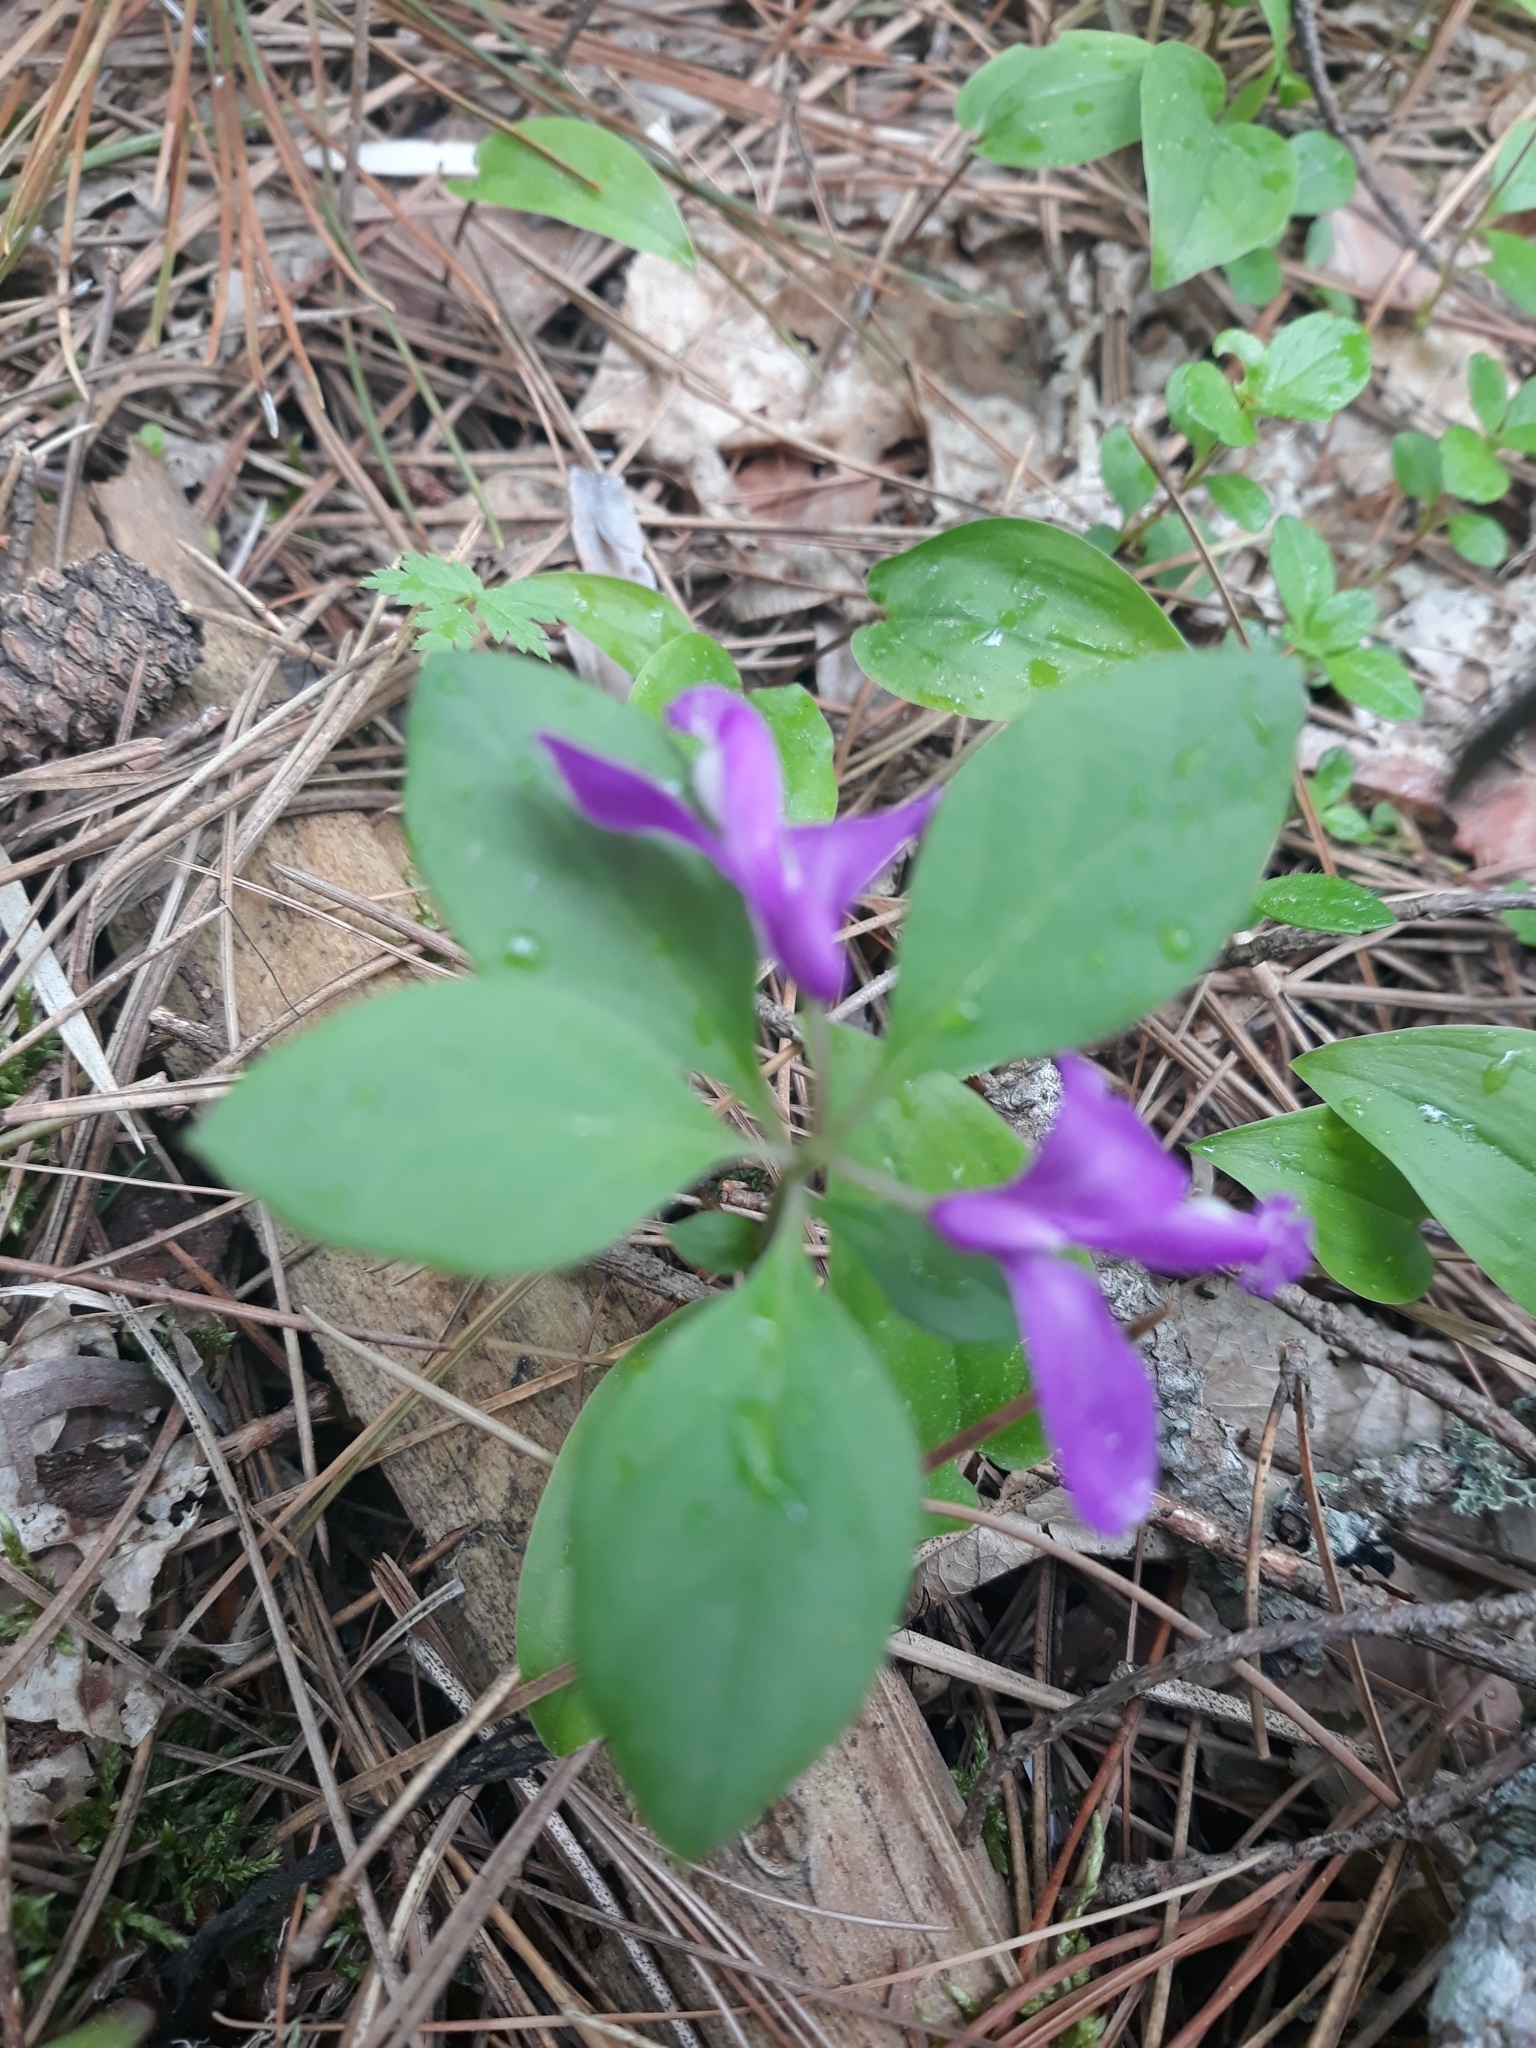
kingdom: Plantae
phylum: Tracheophyta
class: Magnoliopsida
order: Fabales
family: Polygalaceae
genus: Polygaloides
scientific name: Polygaloides paucifolia
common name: Bird-on-the-wing
